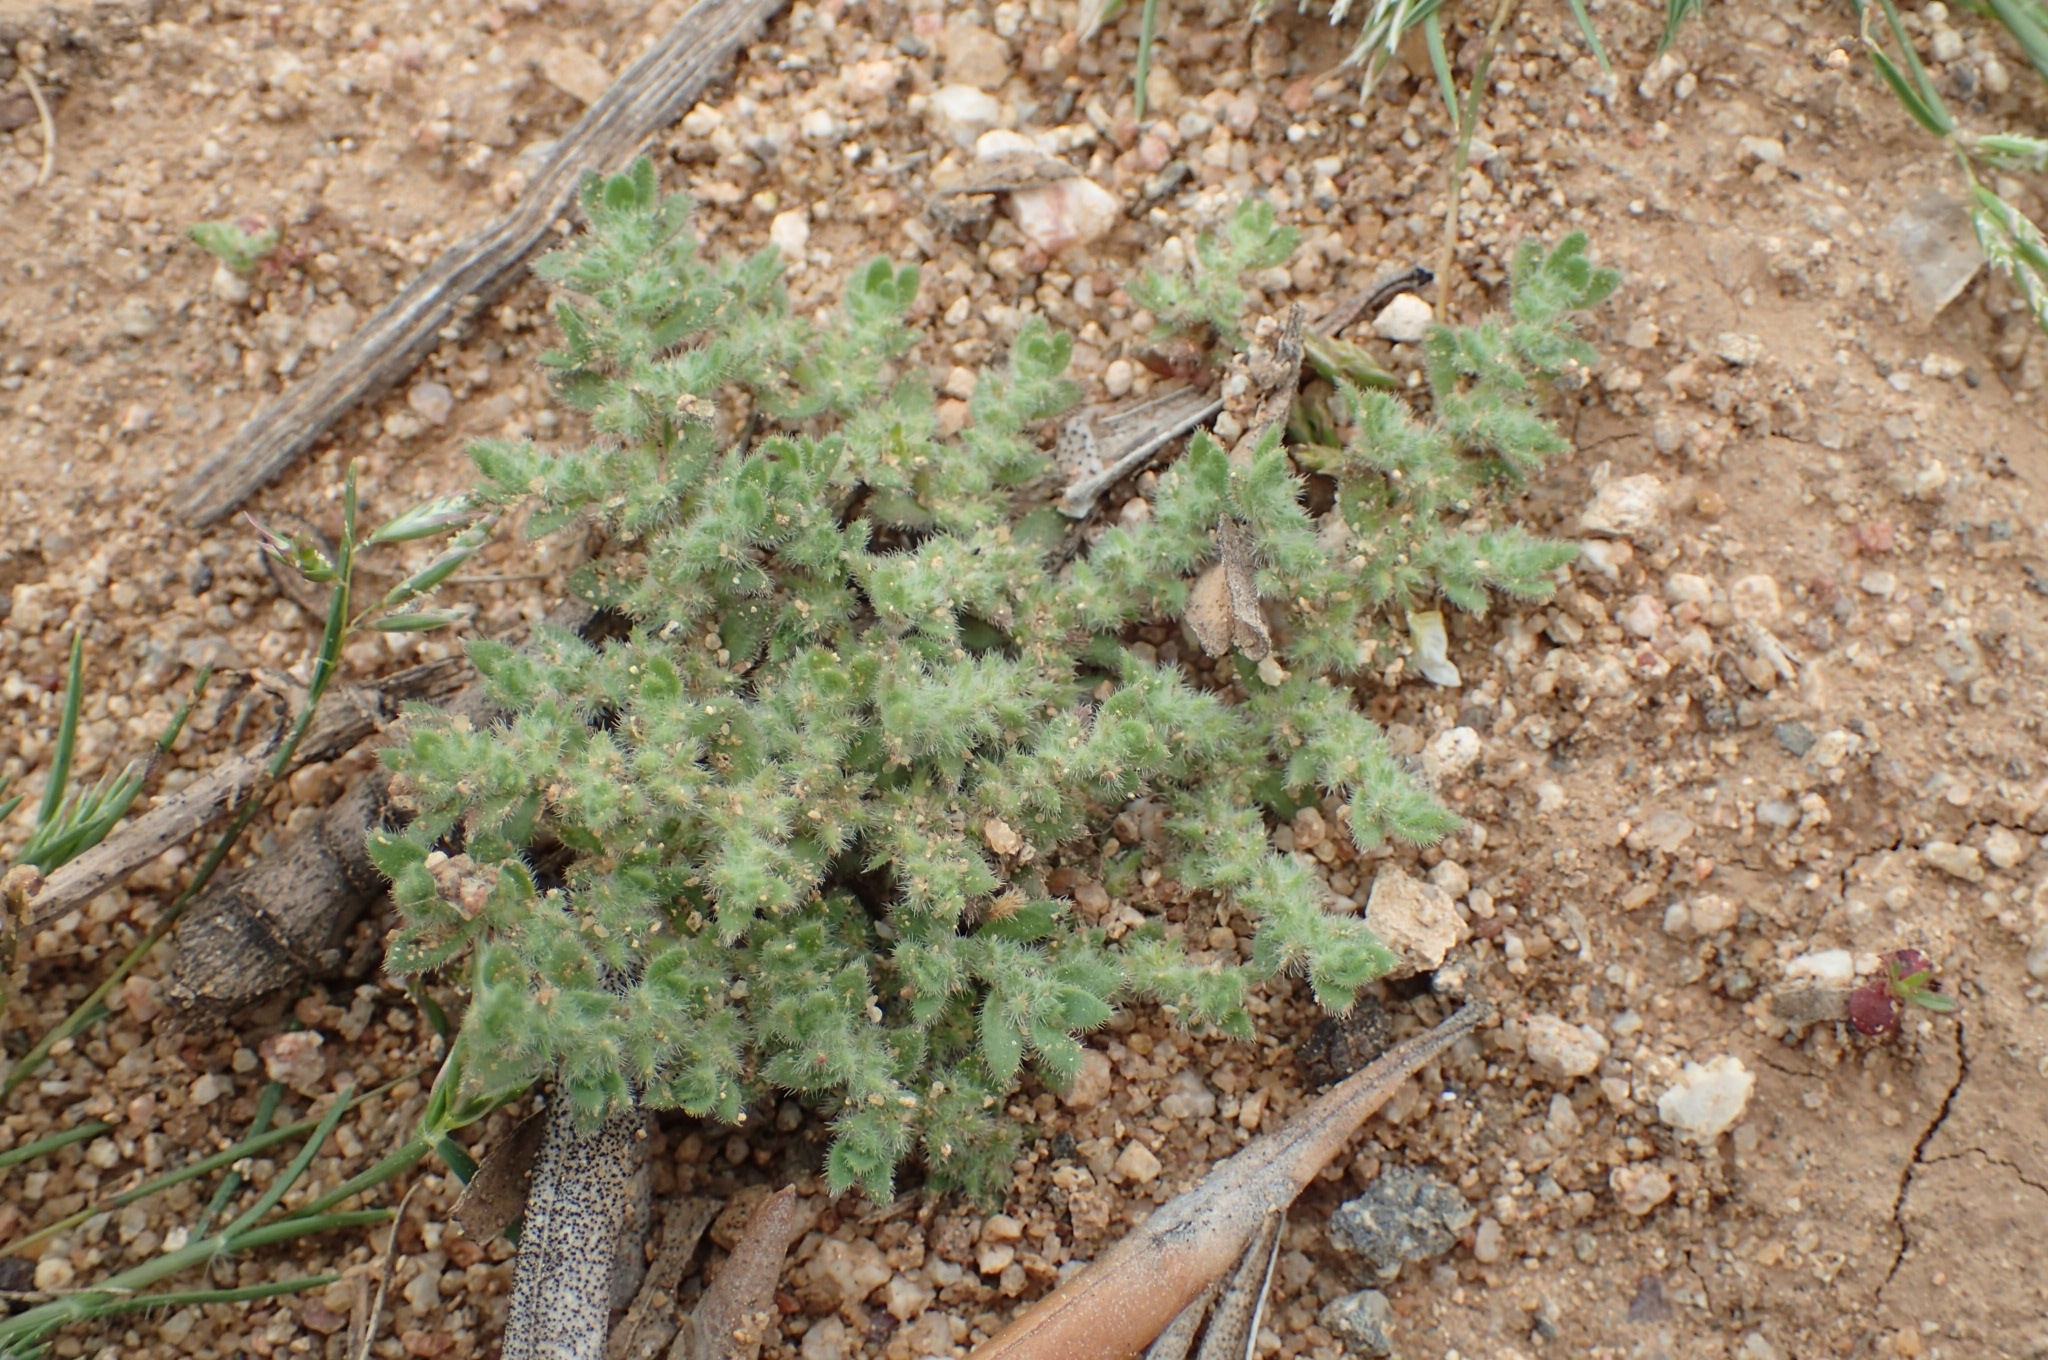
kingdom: Plantae
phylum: Tracheophyta
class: Magnoliopsida
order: Caryophyllales
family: Caryophyllaceae
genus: Herniaria
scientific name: Herniaria cinerea
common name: Hairy rupturewort
